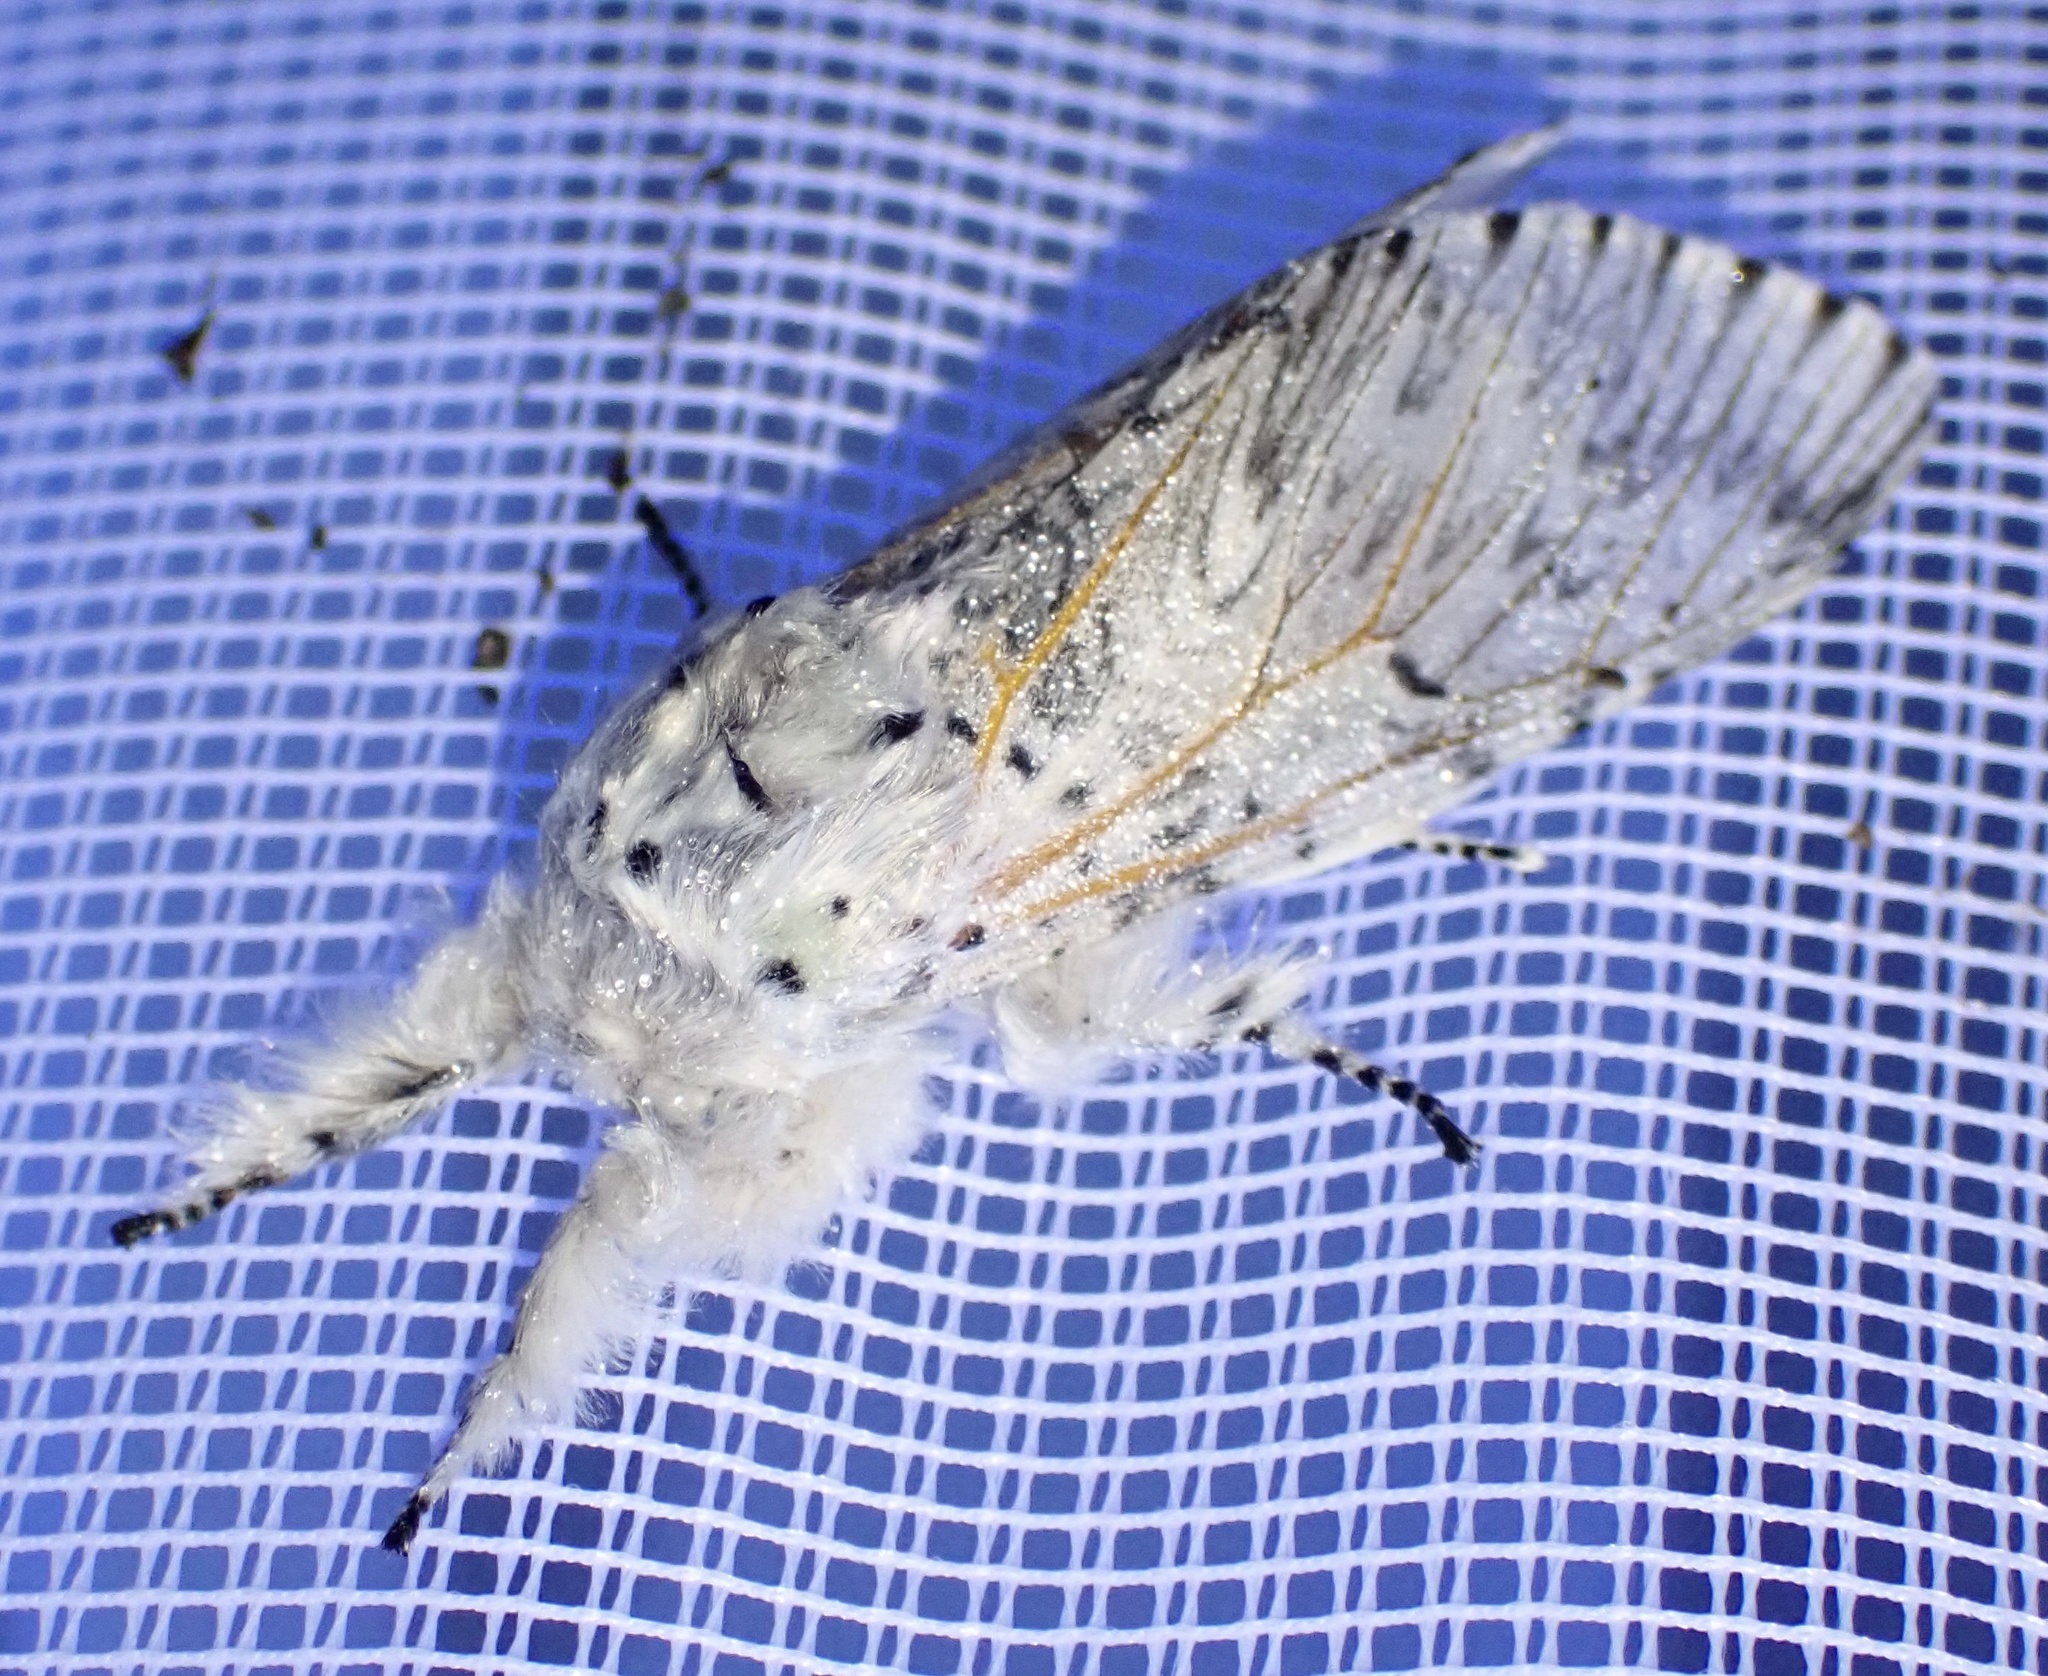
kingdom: Animalia
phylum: Arthropoda
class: Insecta
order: Lepidoptera
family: Notodontidae
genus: Cerura
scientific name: Cerura vinula
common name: Puss moth
